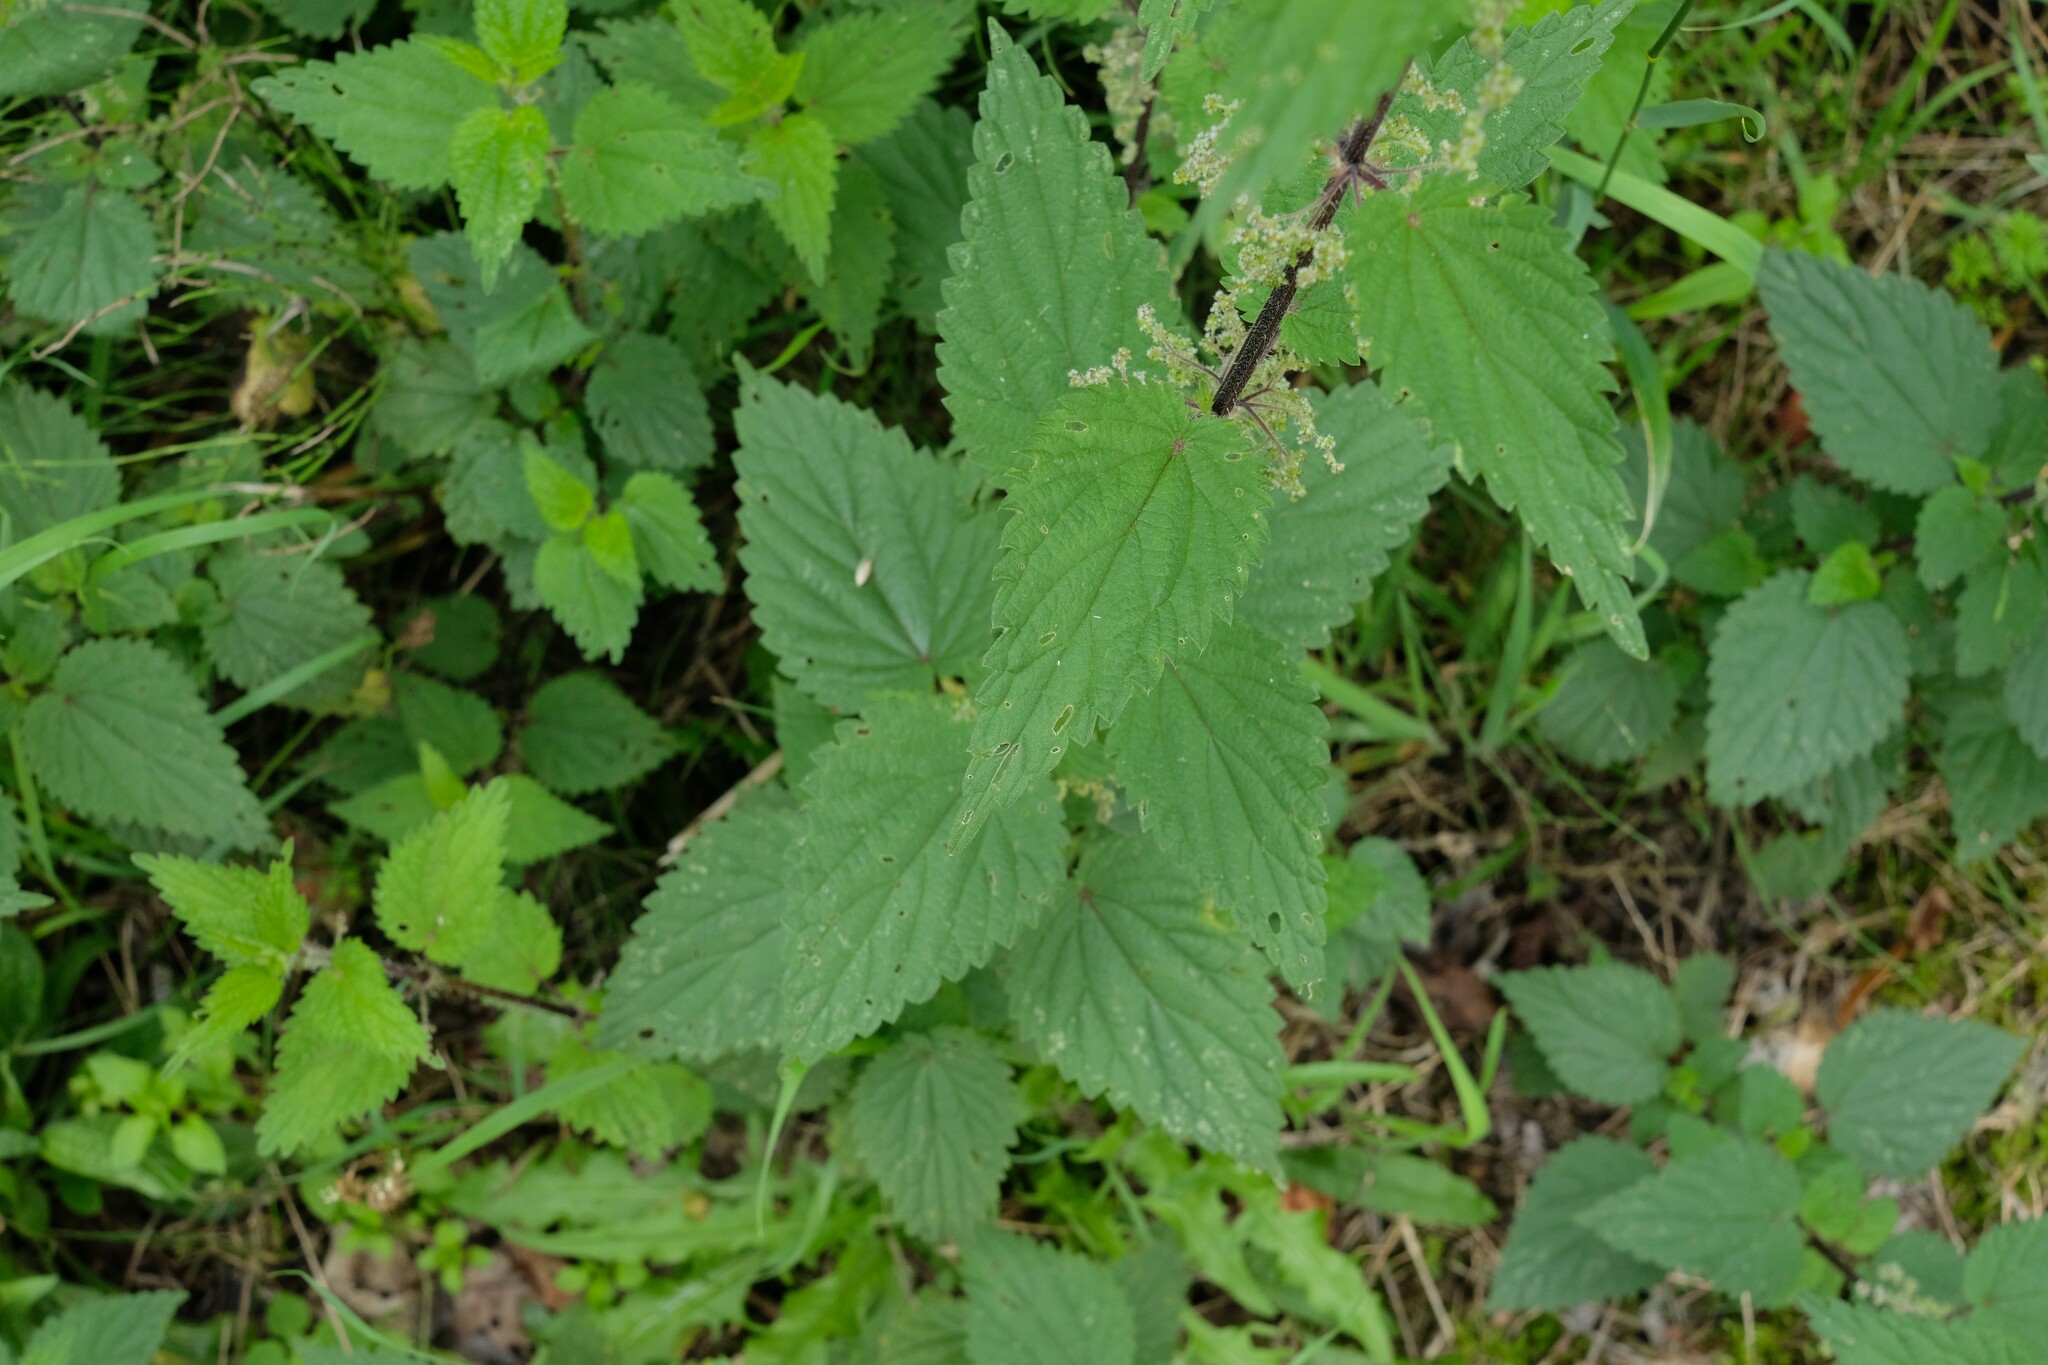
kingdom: Plantae
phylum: Tracheophyta
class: Magnoliopsida
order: Rosales
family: Urticaceae
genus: Urtica
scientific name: Urtica dioica
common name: Common nettle
